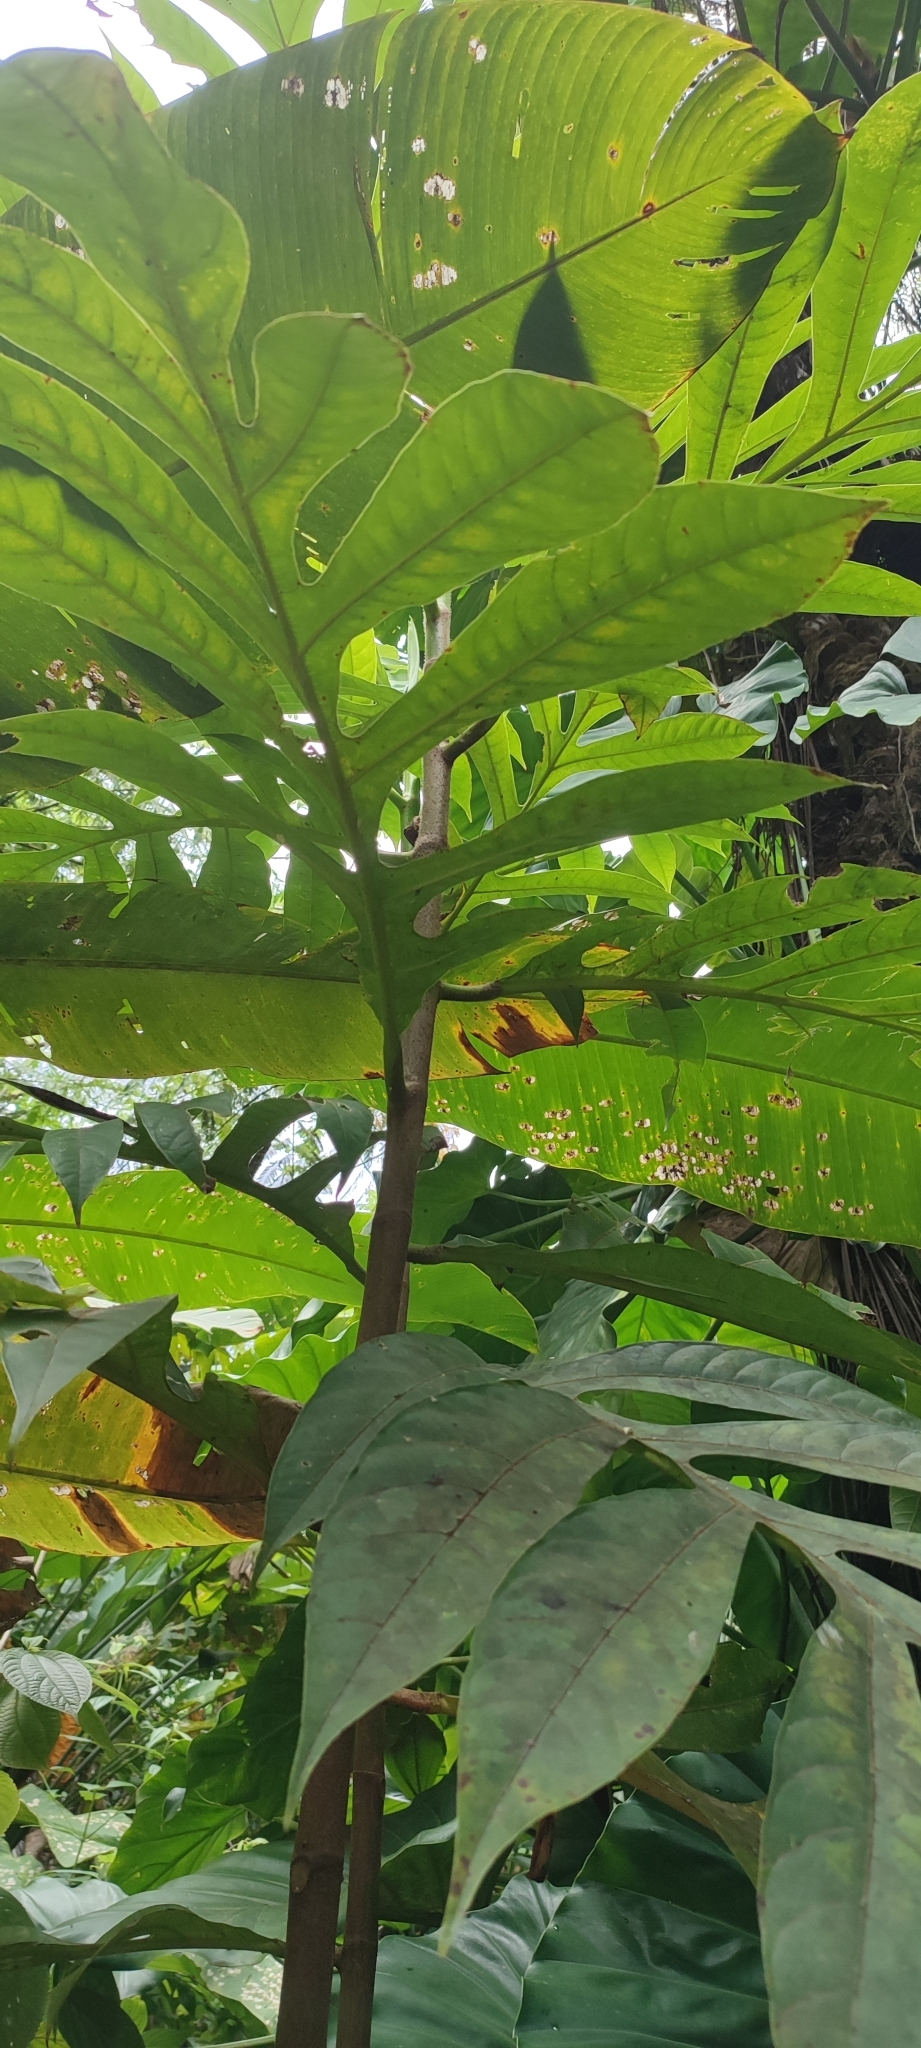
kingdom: Plantae
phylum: Tracheophyta
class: Magnoliopsida
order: Rosales
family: Moraceae
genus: Artocarpus
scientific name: Artocarpus altilis
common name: Breadfruit
